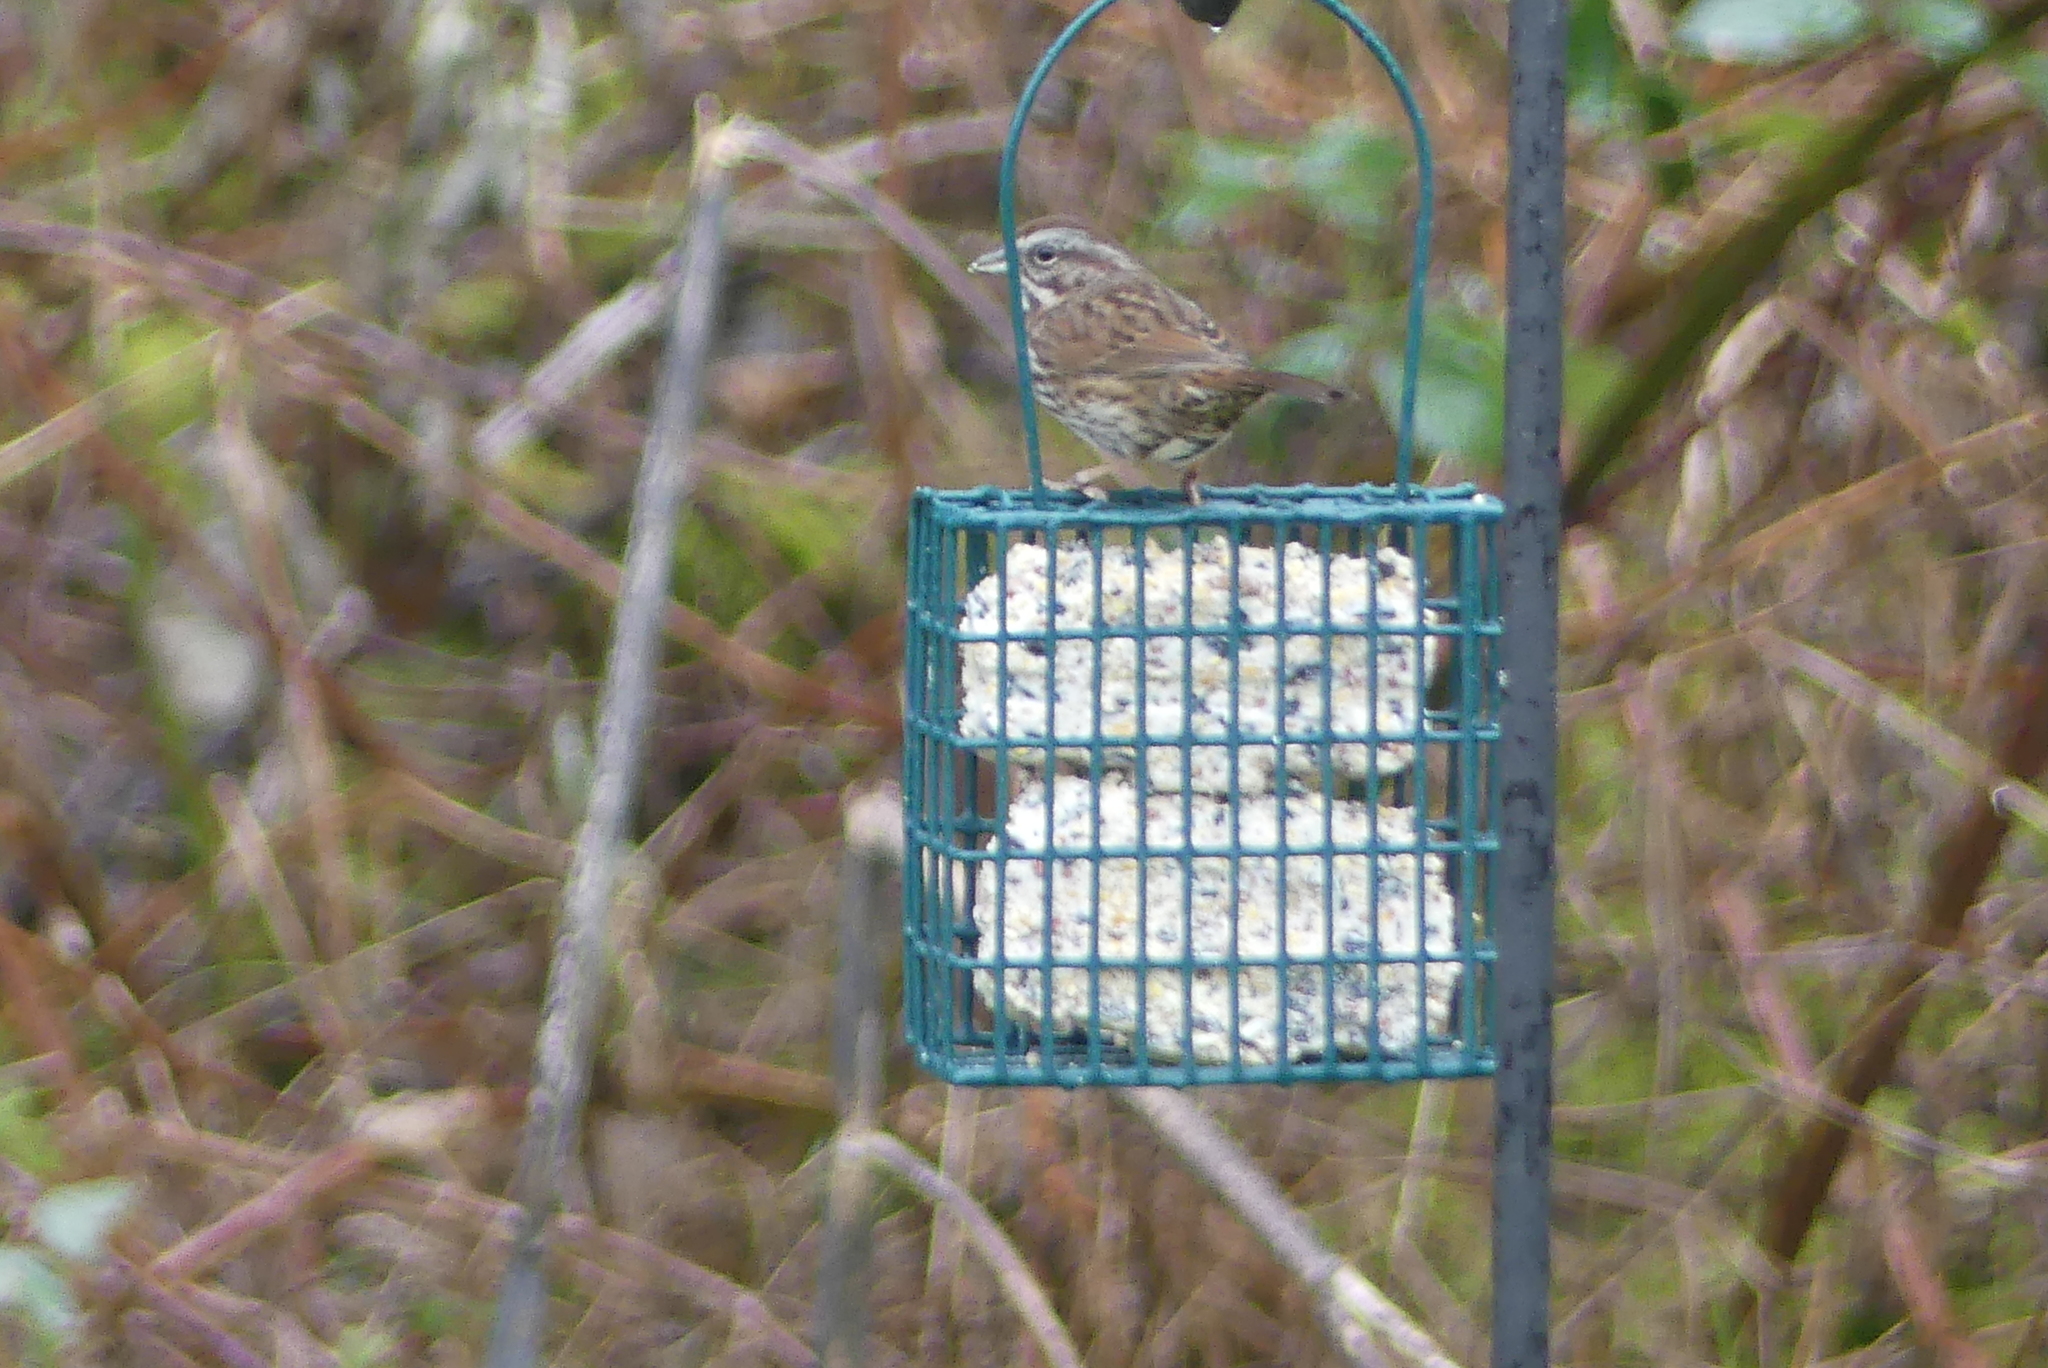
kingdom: Animalia
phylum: Chordata
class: Aves
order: Passeriformes
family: Passerellidae
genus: Melospiza
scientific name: Melospiza melodia
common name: Song sparrow
